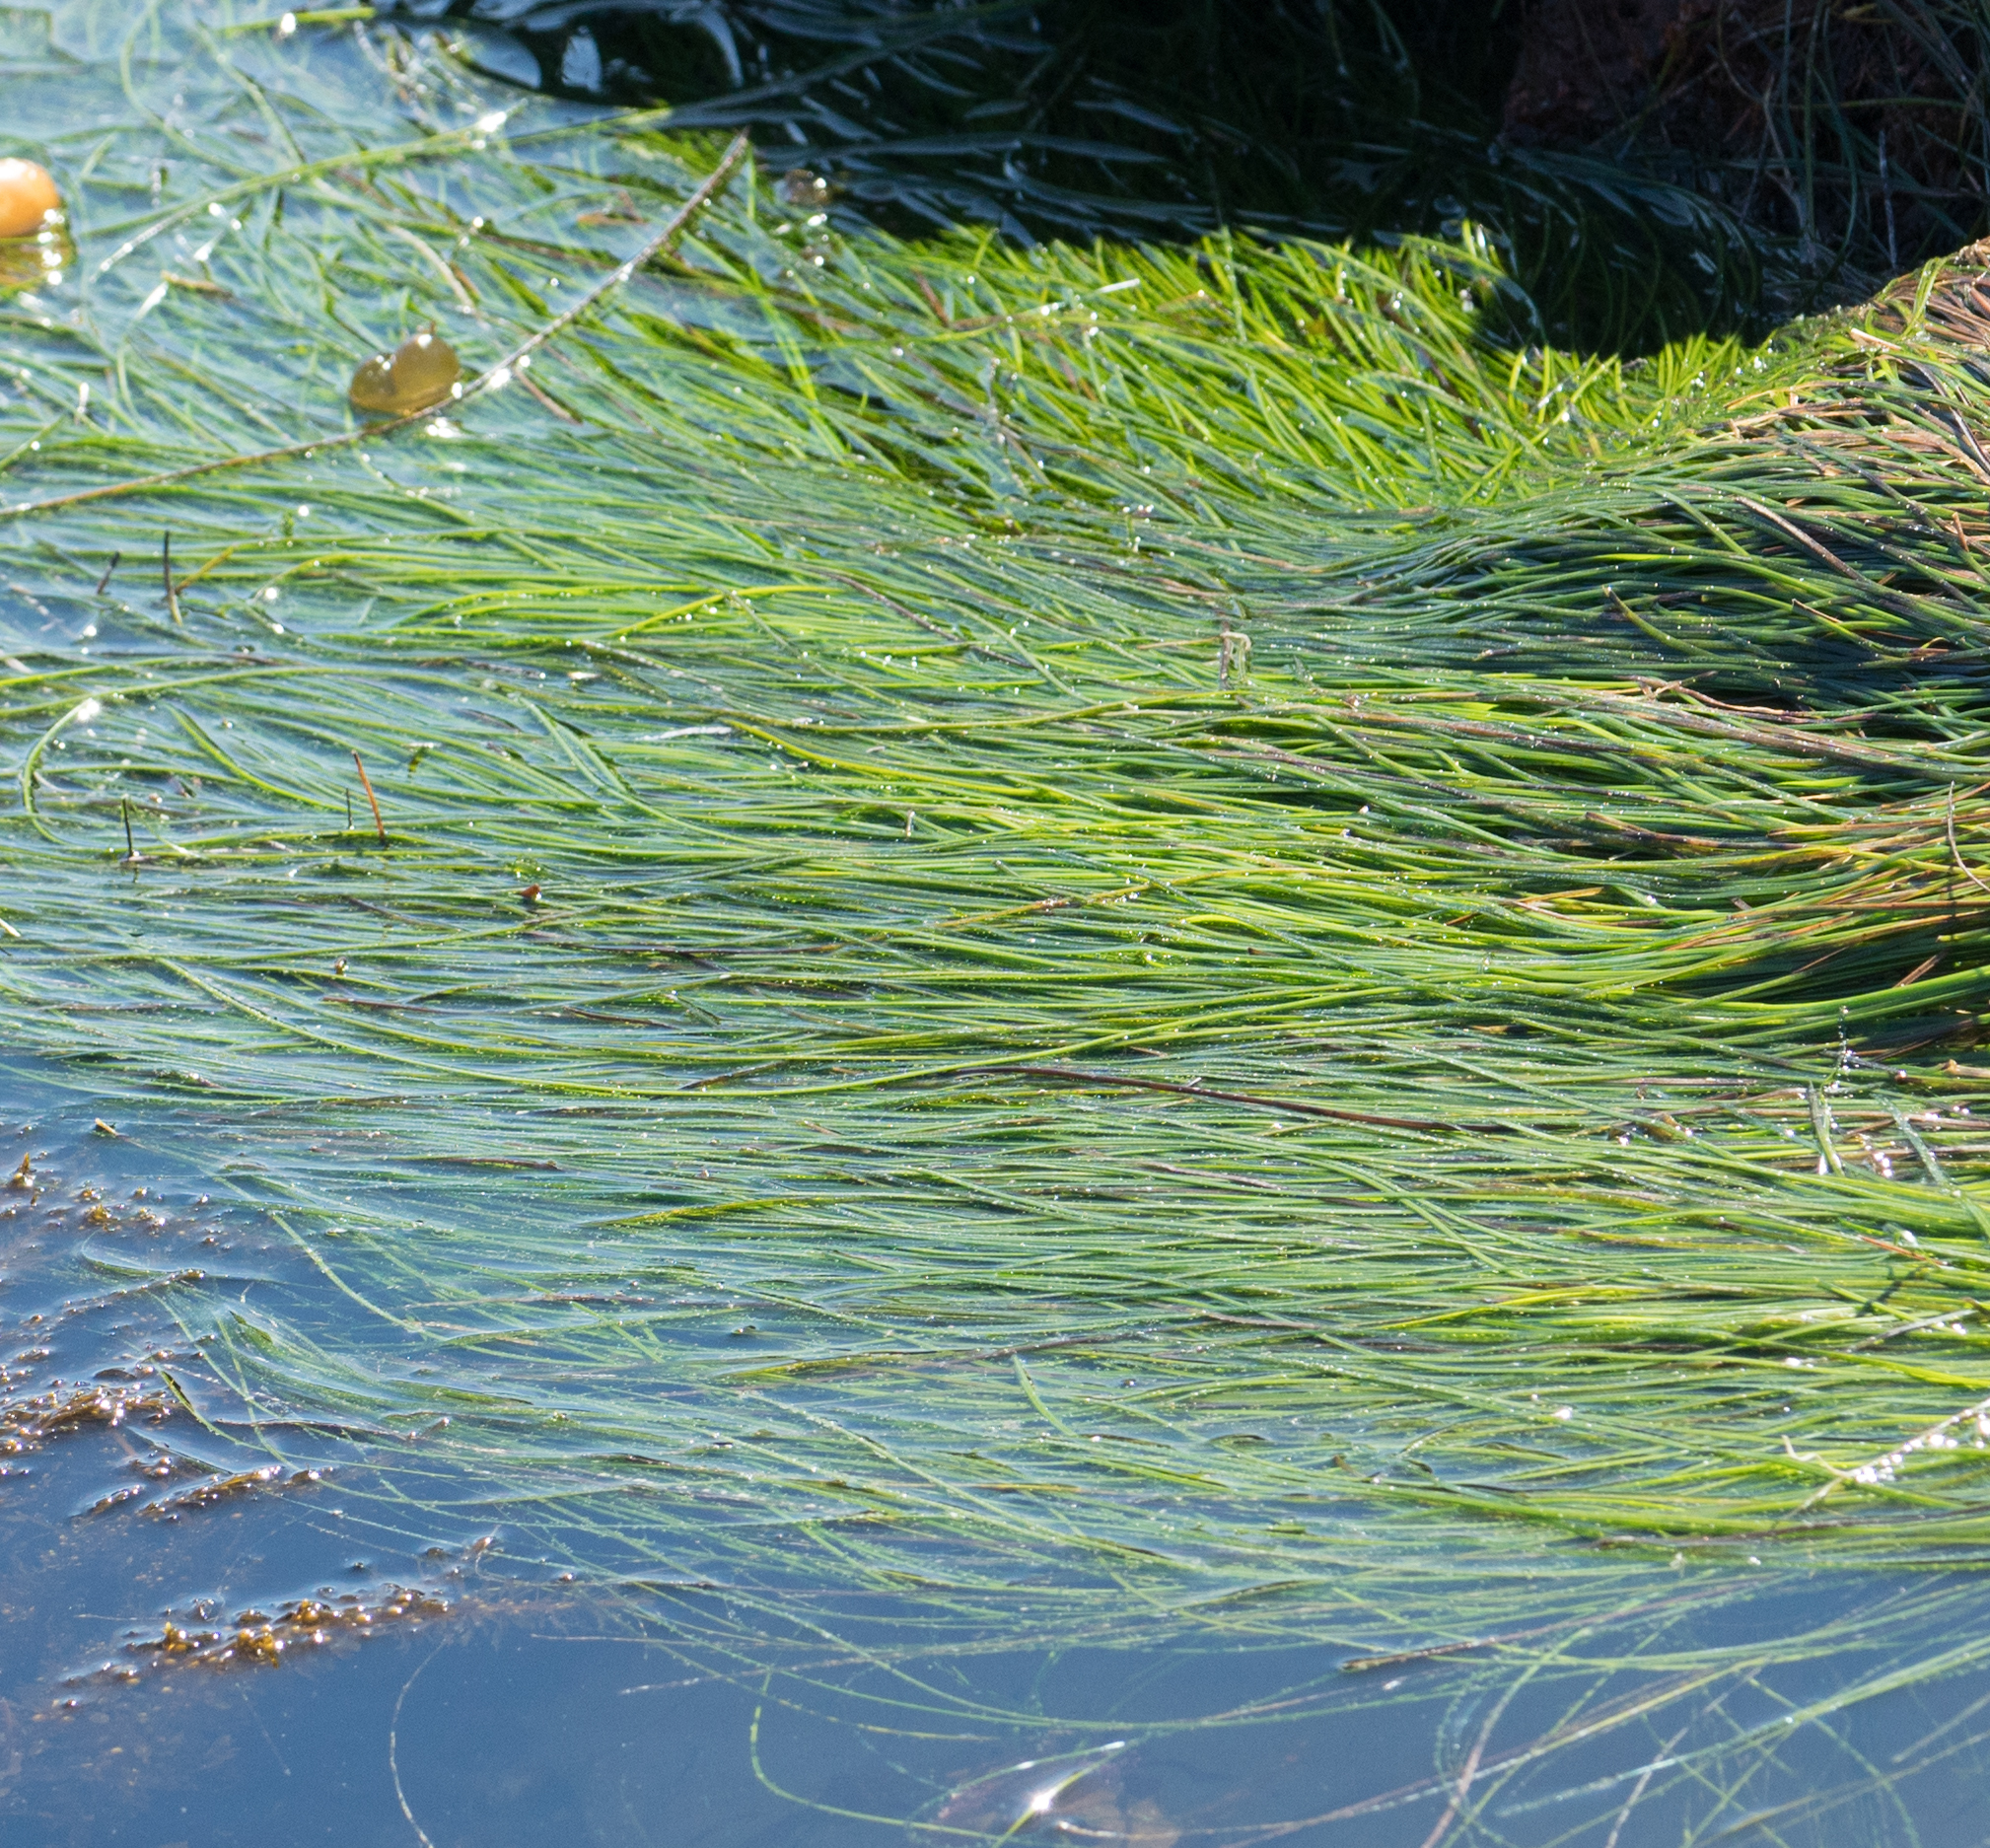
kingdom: Plantae
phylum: Tracheophyta
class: Liliopsida
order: Alismatales
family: Zosteraceae
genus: Phyllospadix
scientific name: Phyllospadix torreyi
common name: Surfgrass
